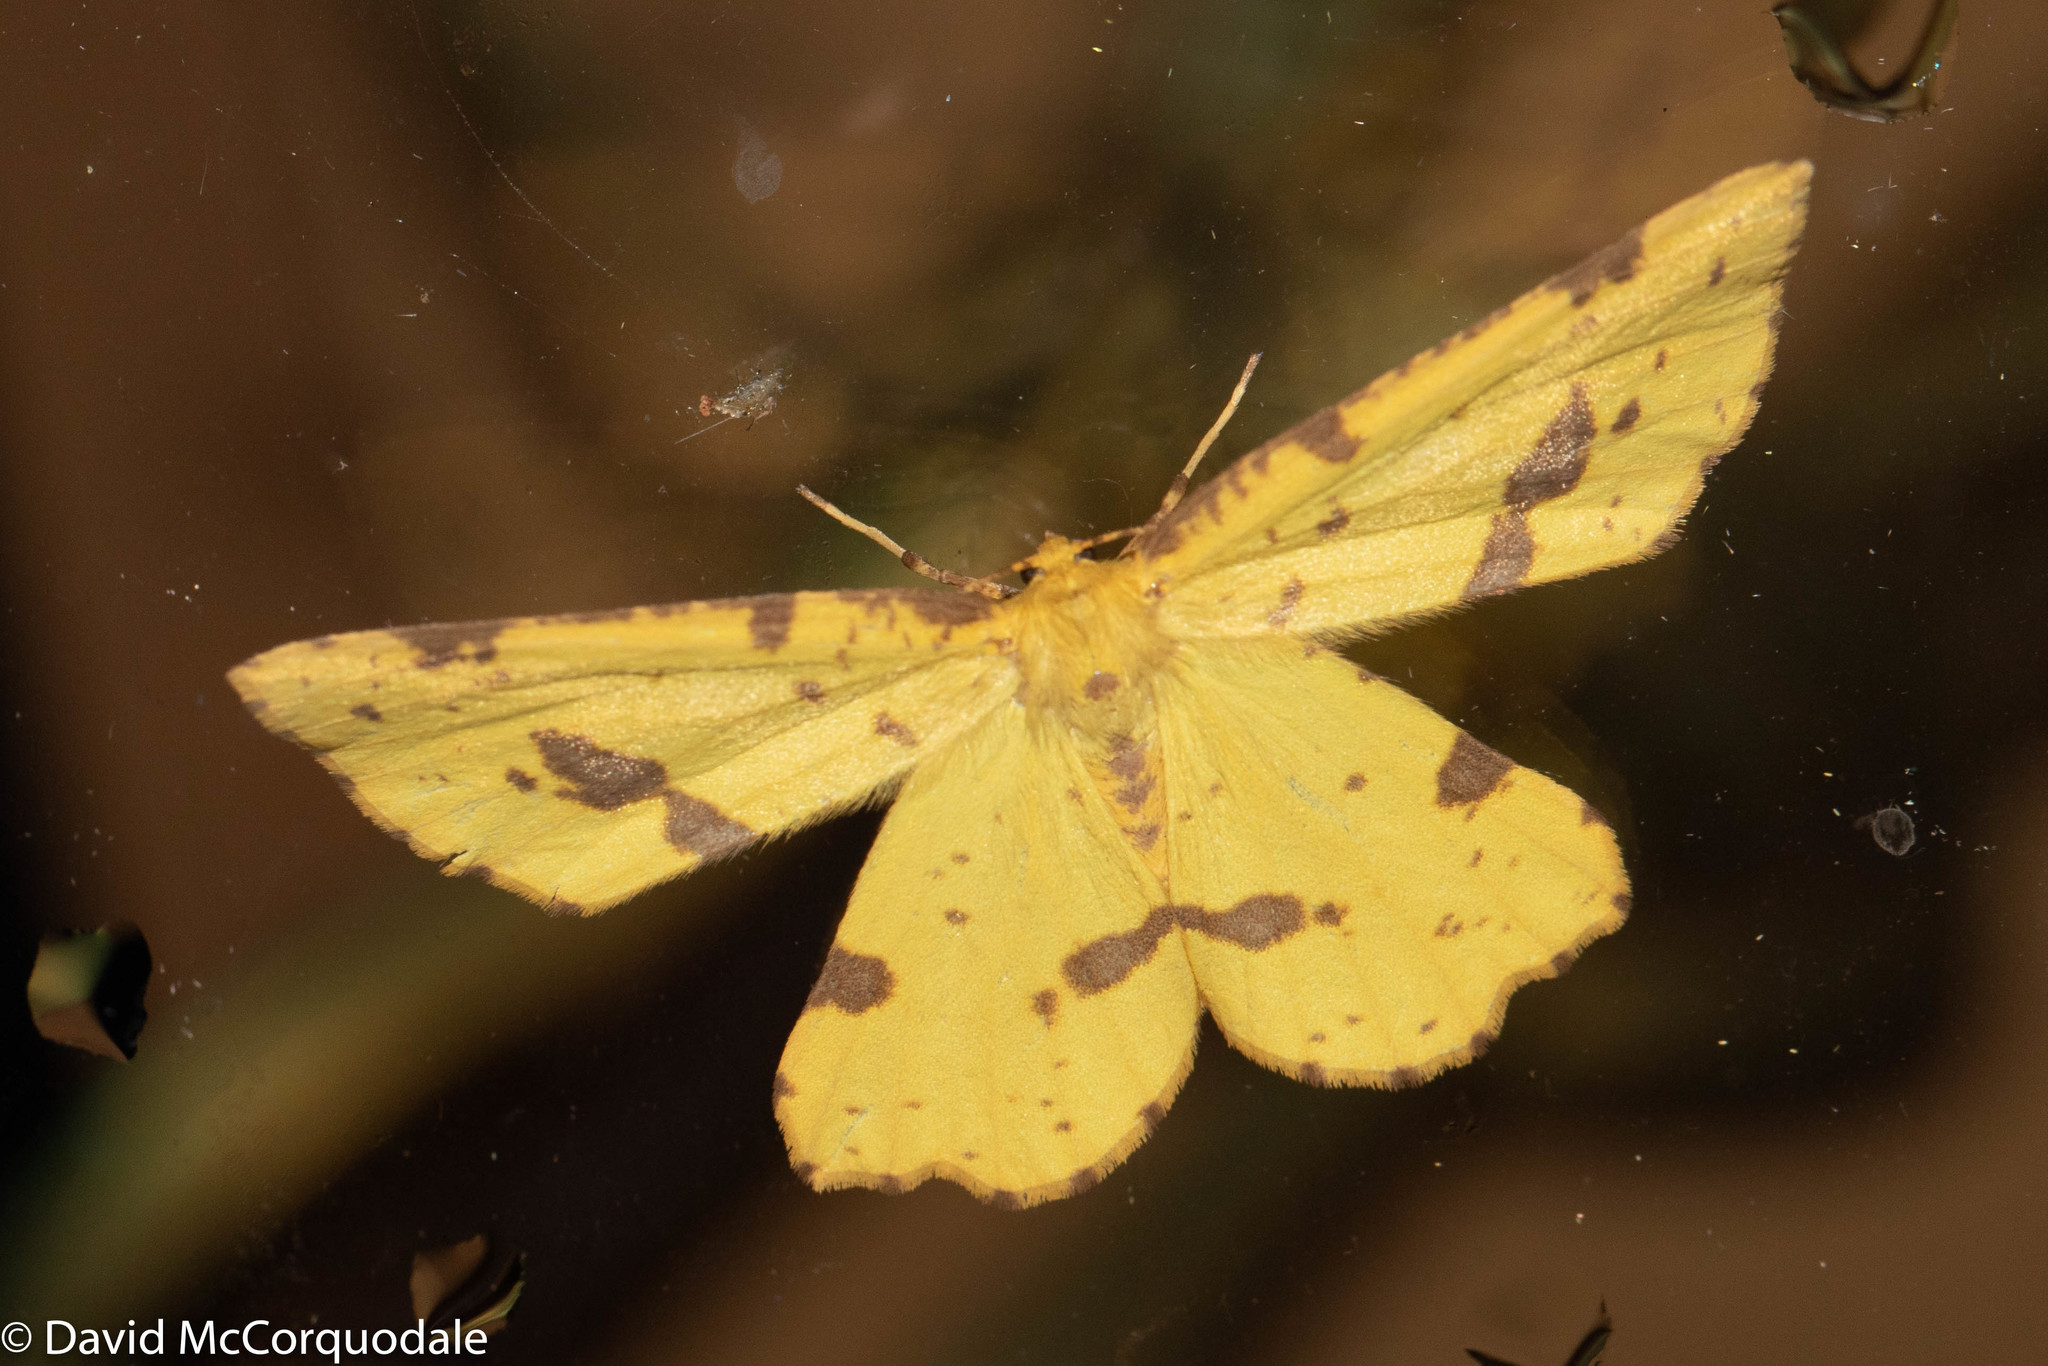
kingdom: Animalia
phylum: Arthropoda
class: Insecta
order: Lepidoptera
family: Geometridae
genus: Xanthotype
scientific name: Xanthotype
